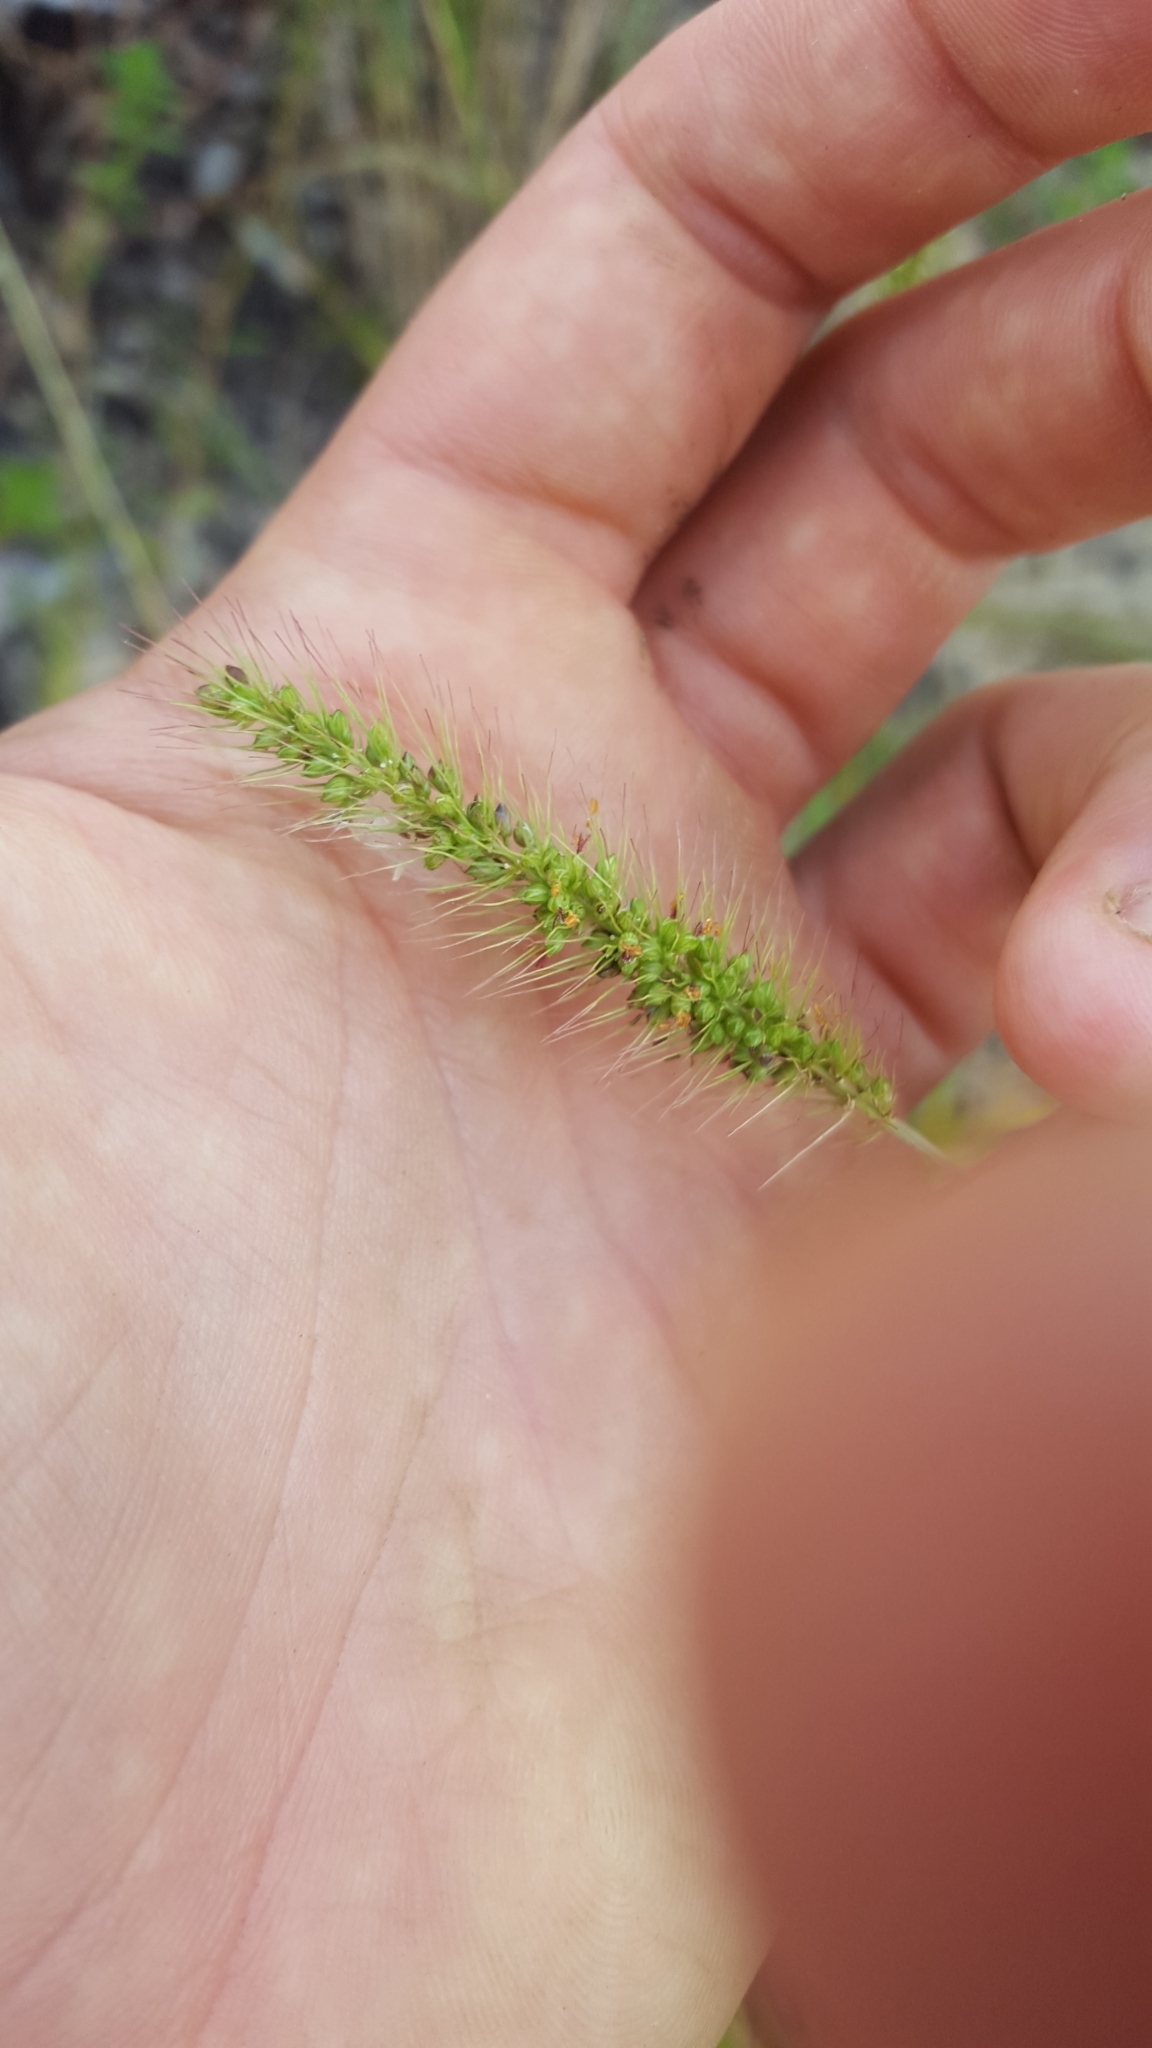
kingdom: Plantae
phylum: Tracheophyta
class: Liliopsida
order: Poales
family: Poaceae
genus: Setaria
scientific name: Setaria corrugata
